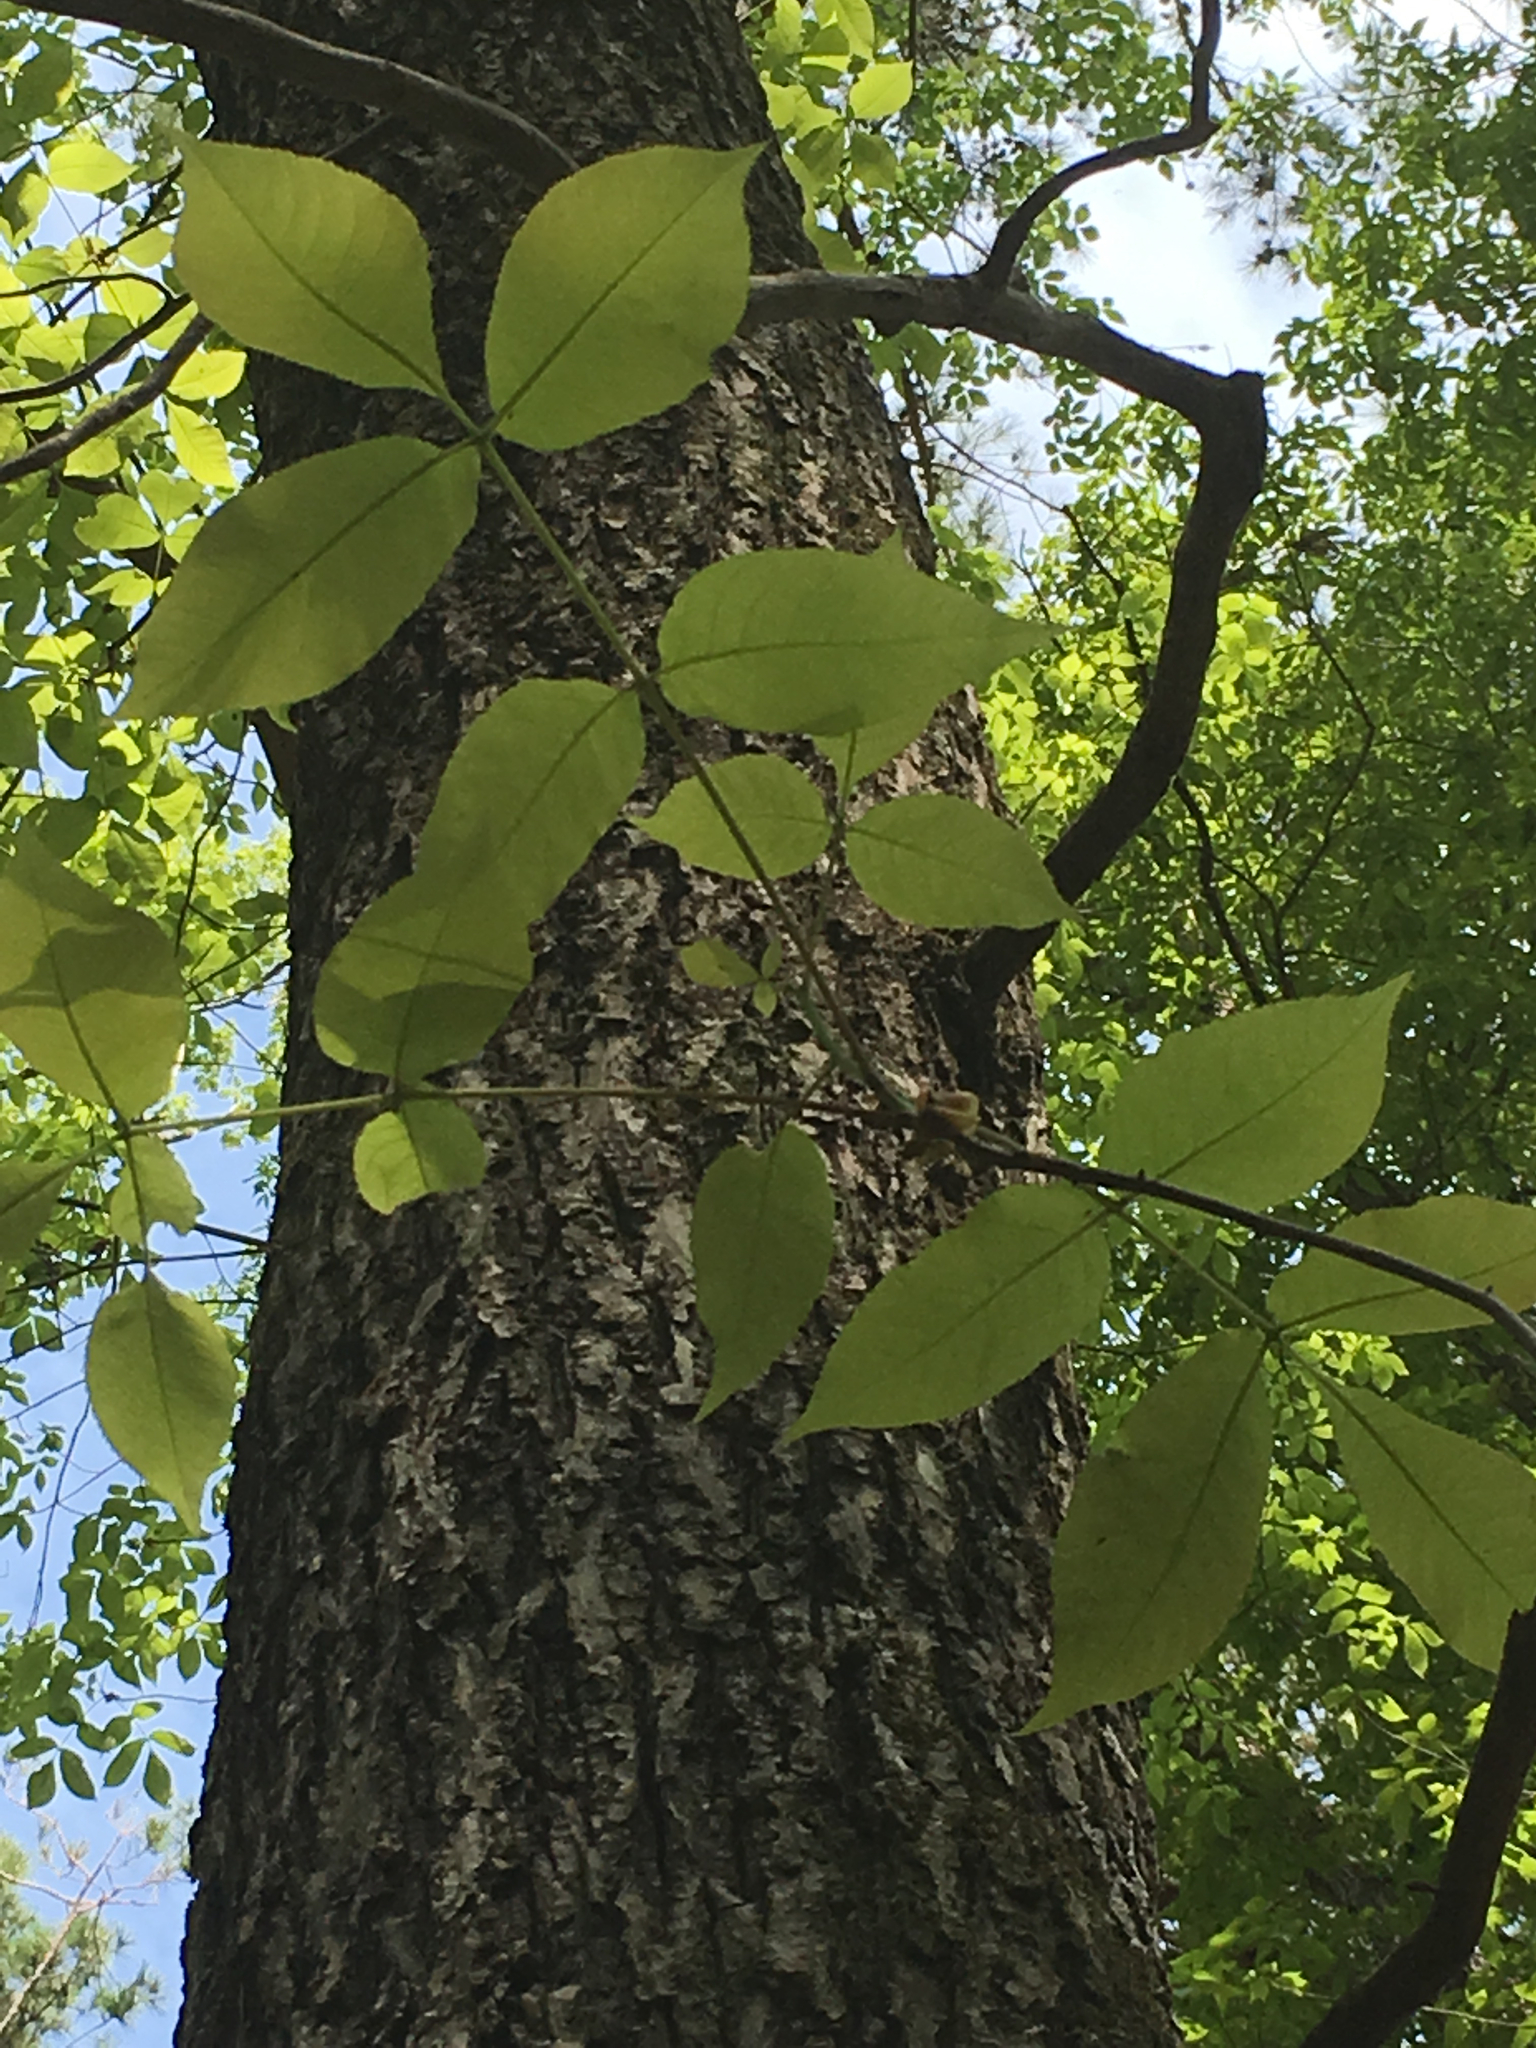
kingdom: Plantae
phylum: Tracheophyta
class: Magnoliopsida
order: Fagales
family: Juglandaceae
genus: Carya
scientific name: Carya glabra
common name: Pignut hickory
